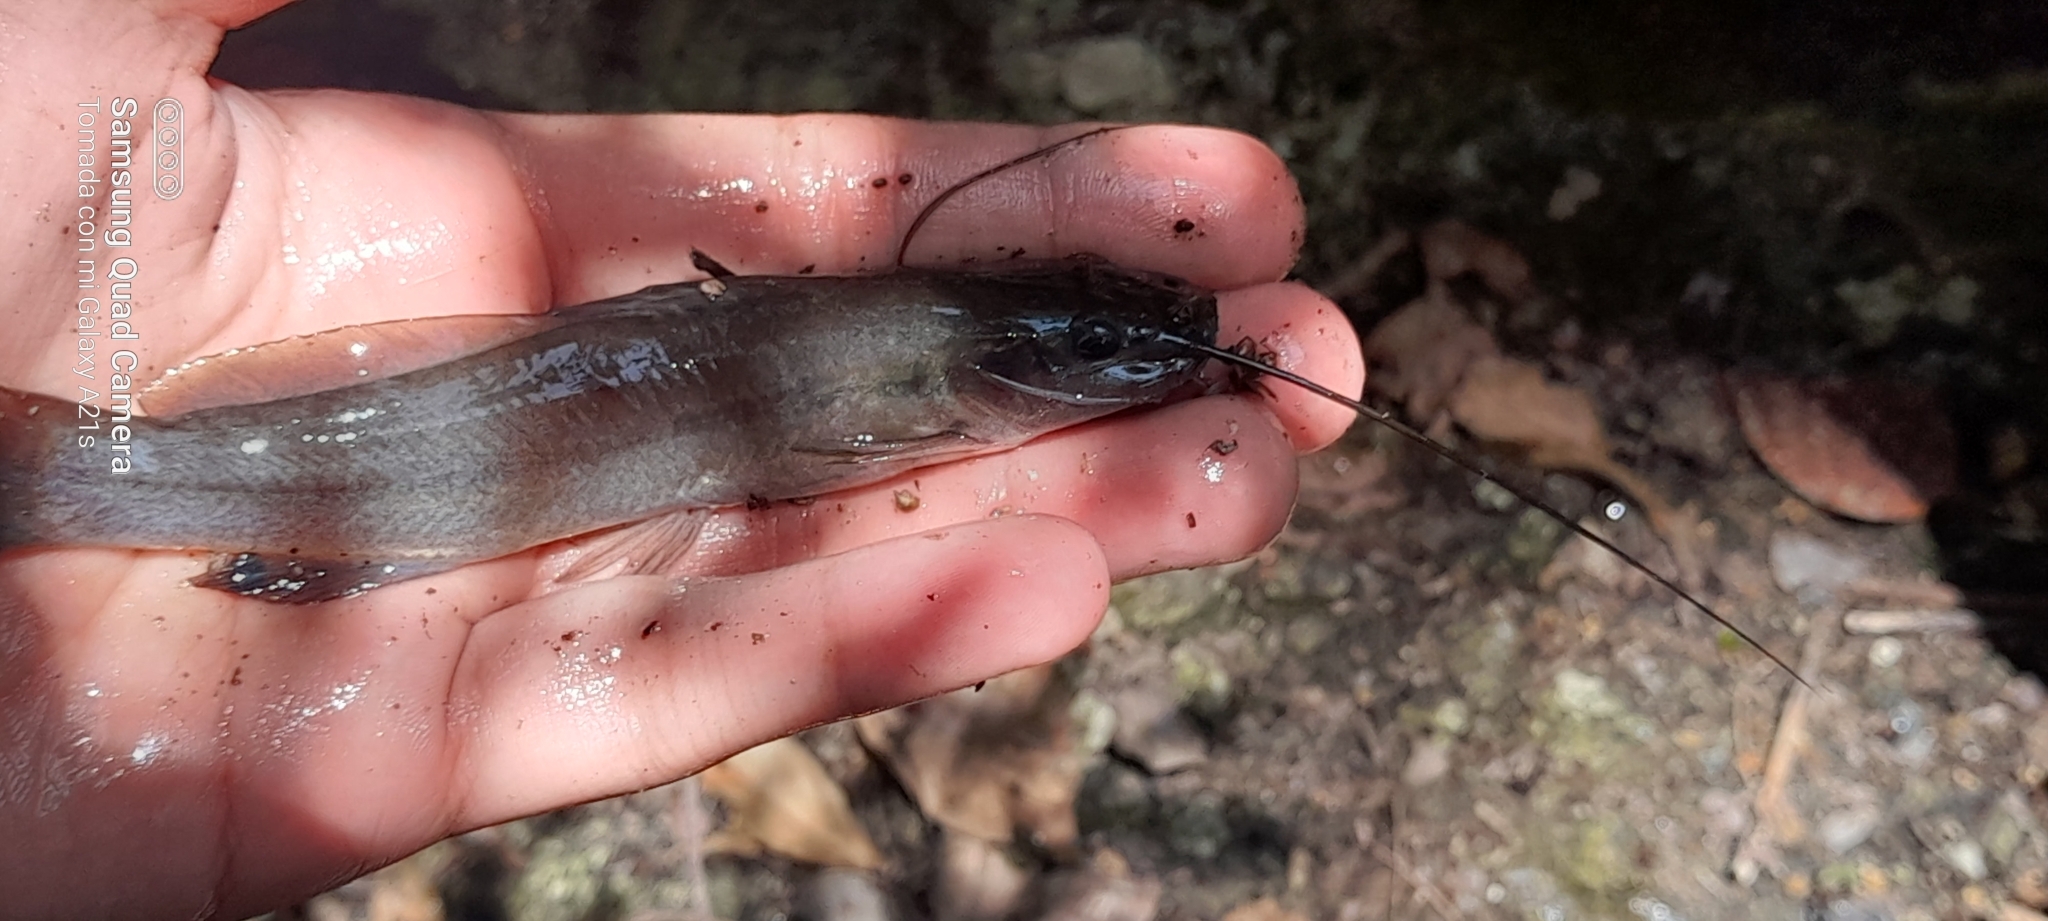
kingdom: Animalia
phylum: Chordata
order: Siluriformes
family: Heptapteridae
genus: Rhamdia
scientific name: Rhamdia guatemalensis
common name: Pale catfish
